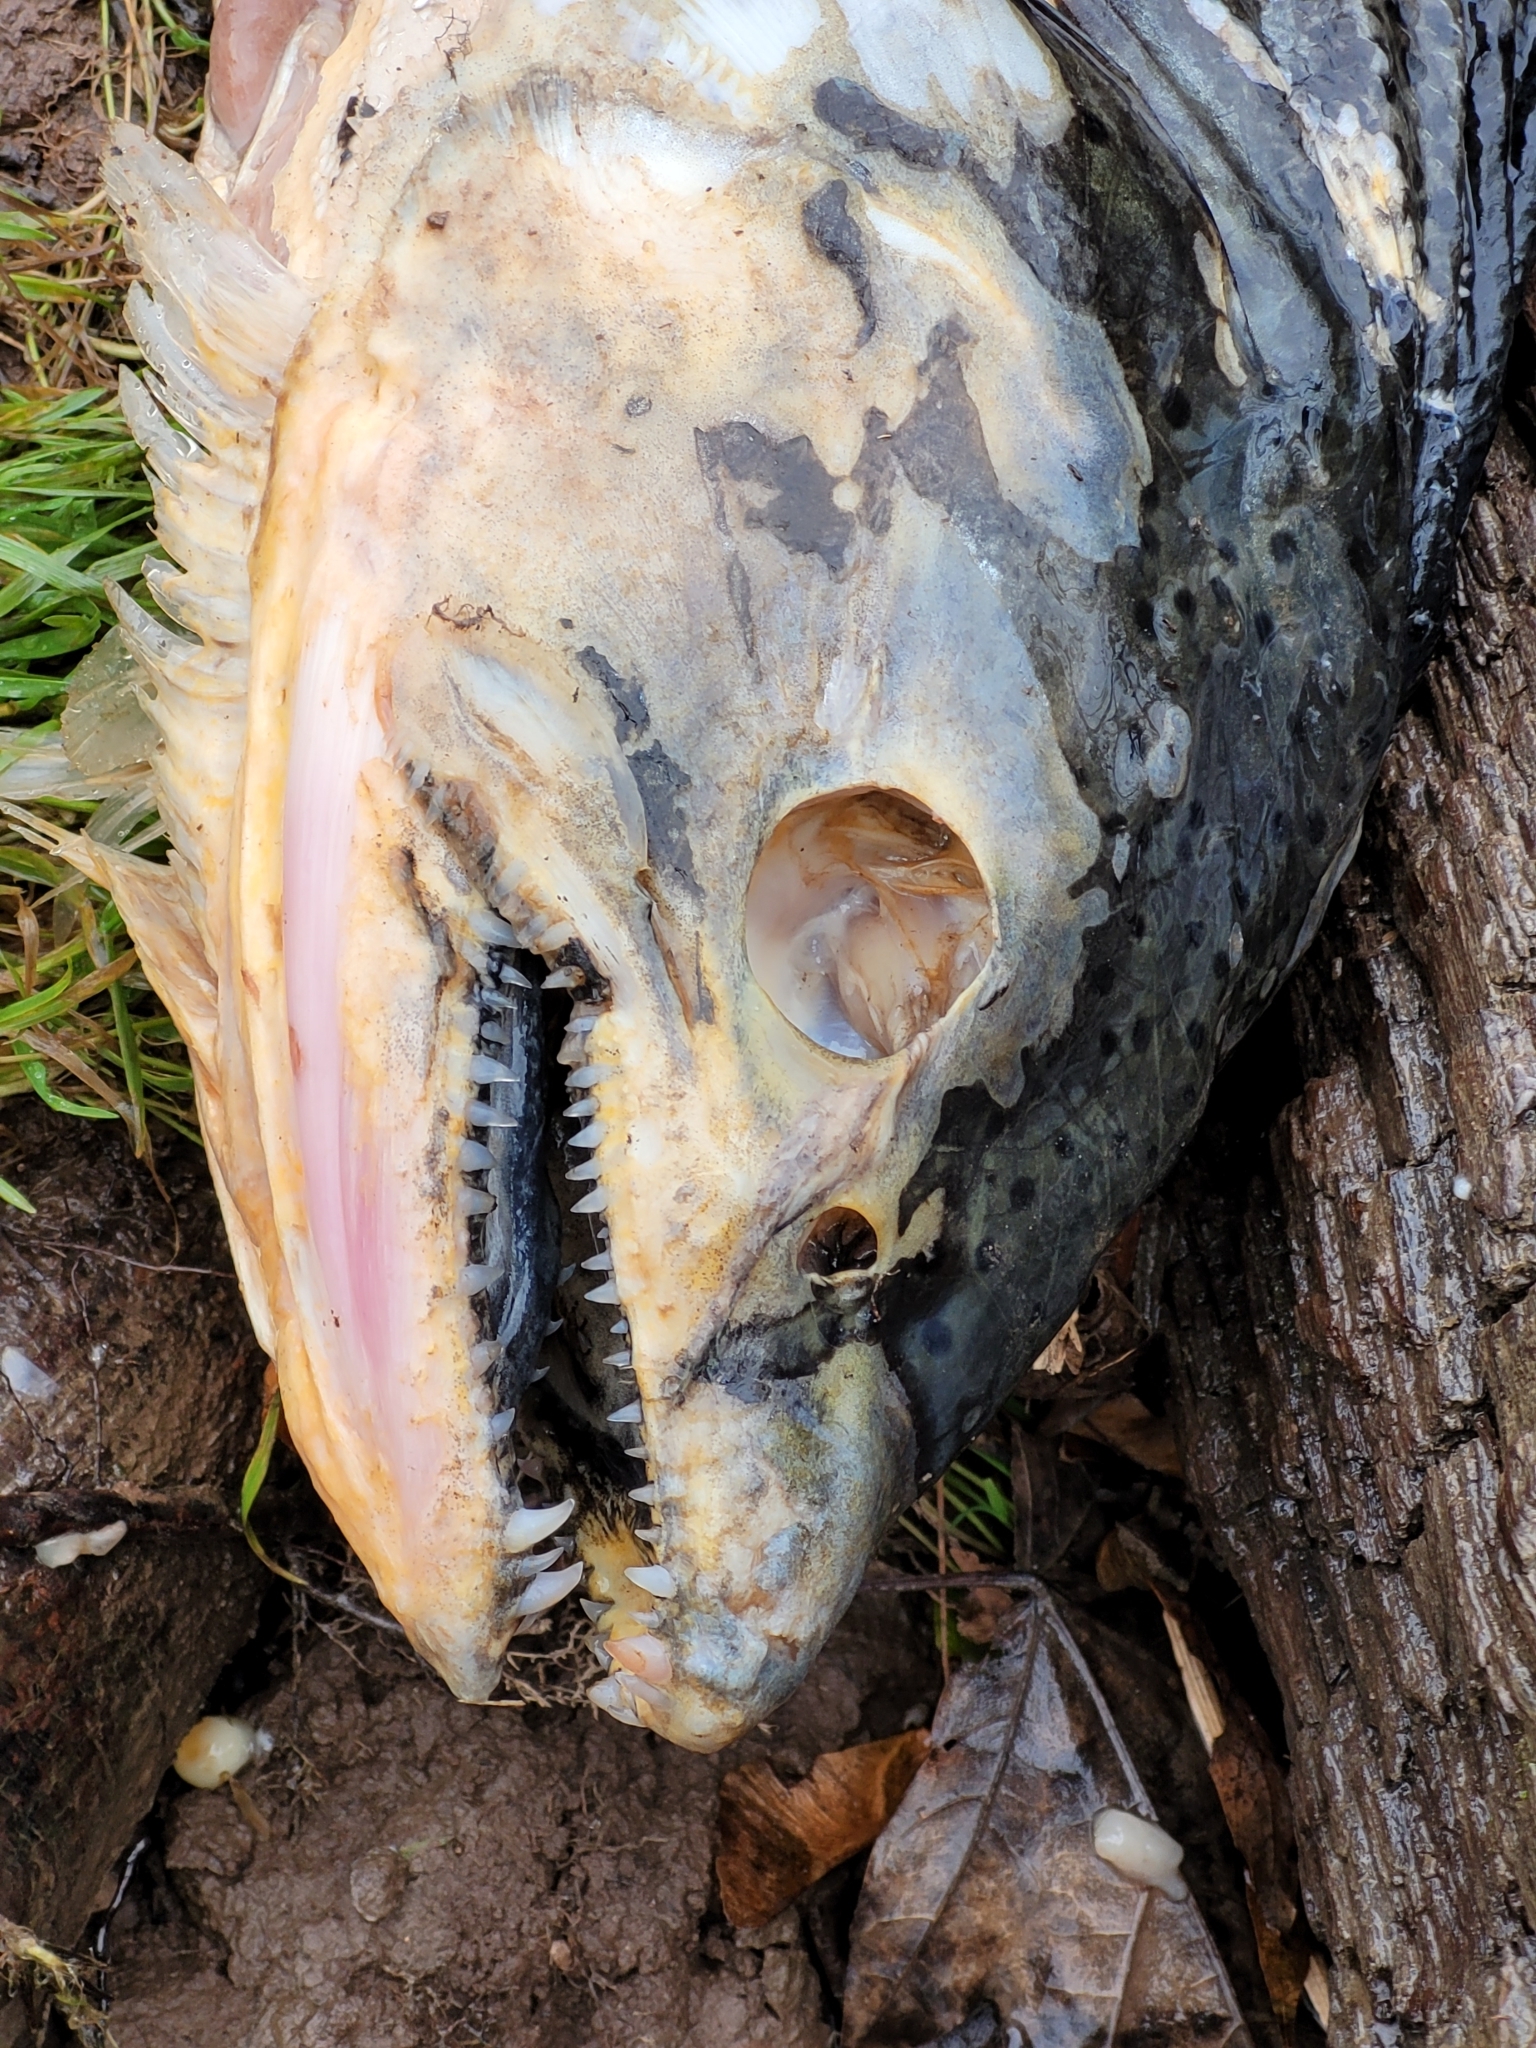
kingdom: Animalia
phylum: Chordata
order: Salmoniformes
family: Salmonidae
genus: Oncorhynchus
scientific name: Oncorhynchus tshawytscha
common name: Chinook salmon
